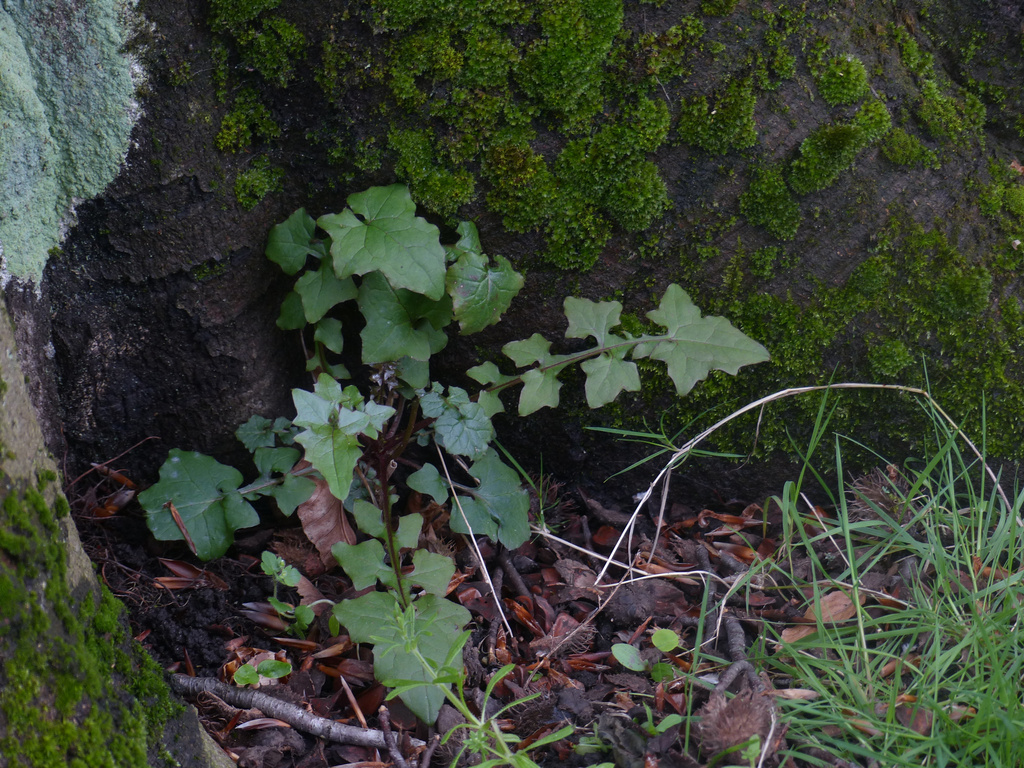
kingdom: Plantae
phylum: Tracheophyta
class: Magnoliopsida
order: Asterales
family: Asteraceae
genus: Mycelis
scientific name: Mycelis muralis
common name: Wall lettuce
